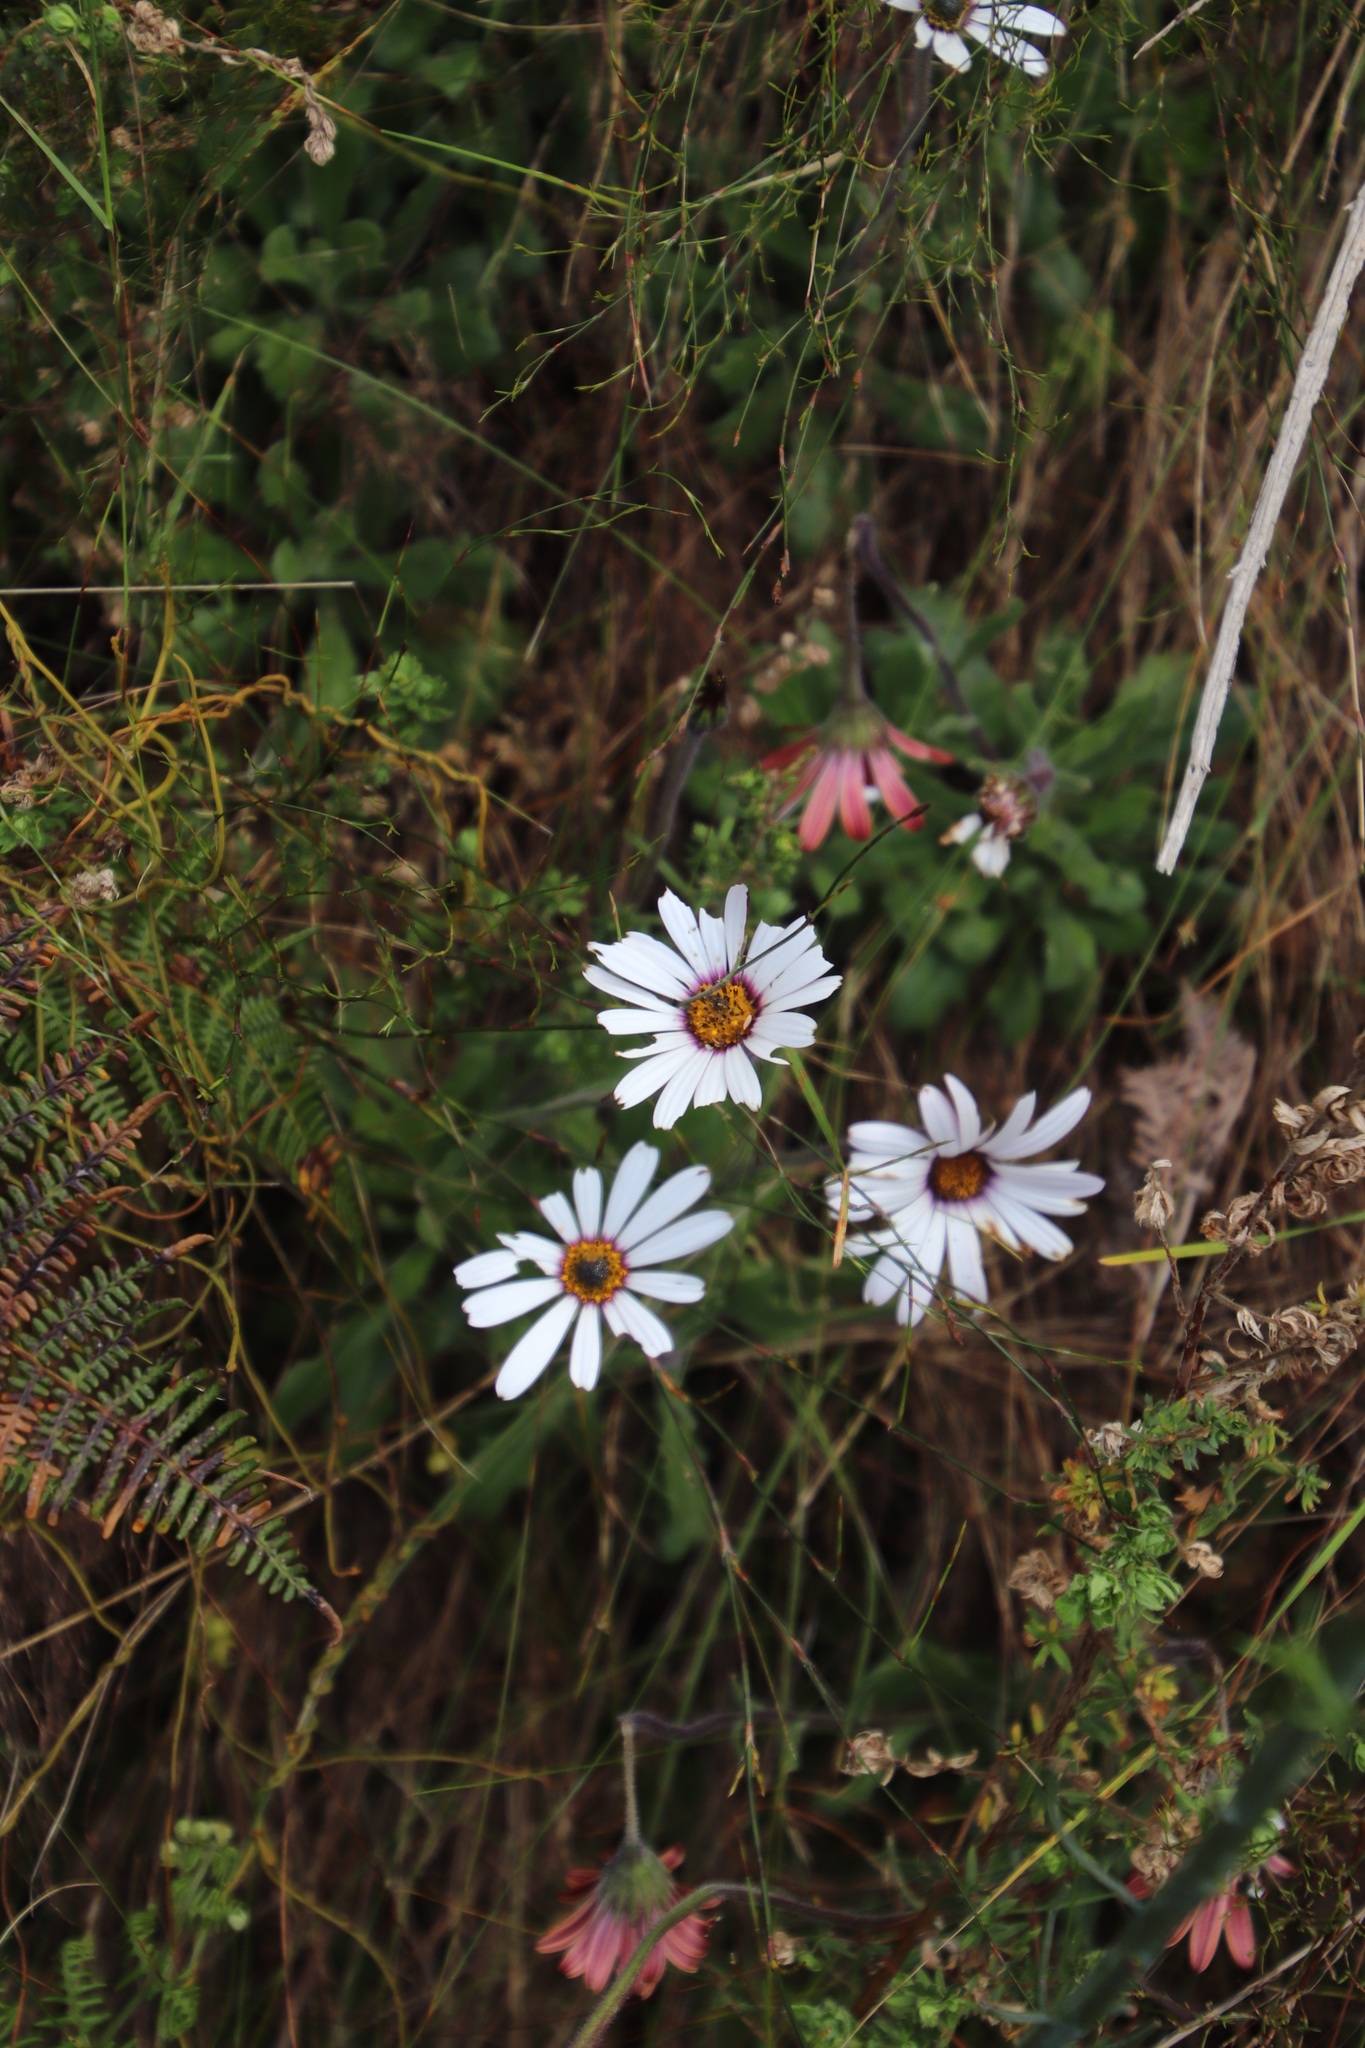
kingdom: Plantae
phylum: Tracheophyta
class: Magnoliopsida
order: Asterales
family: Asteraceae
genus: Dimorphotheca
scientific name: Dimorphotheca nudicaulis
